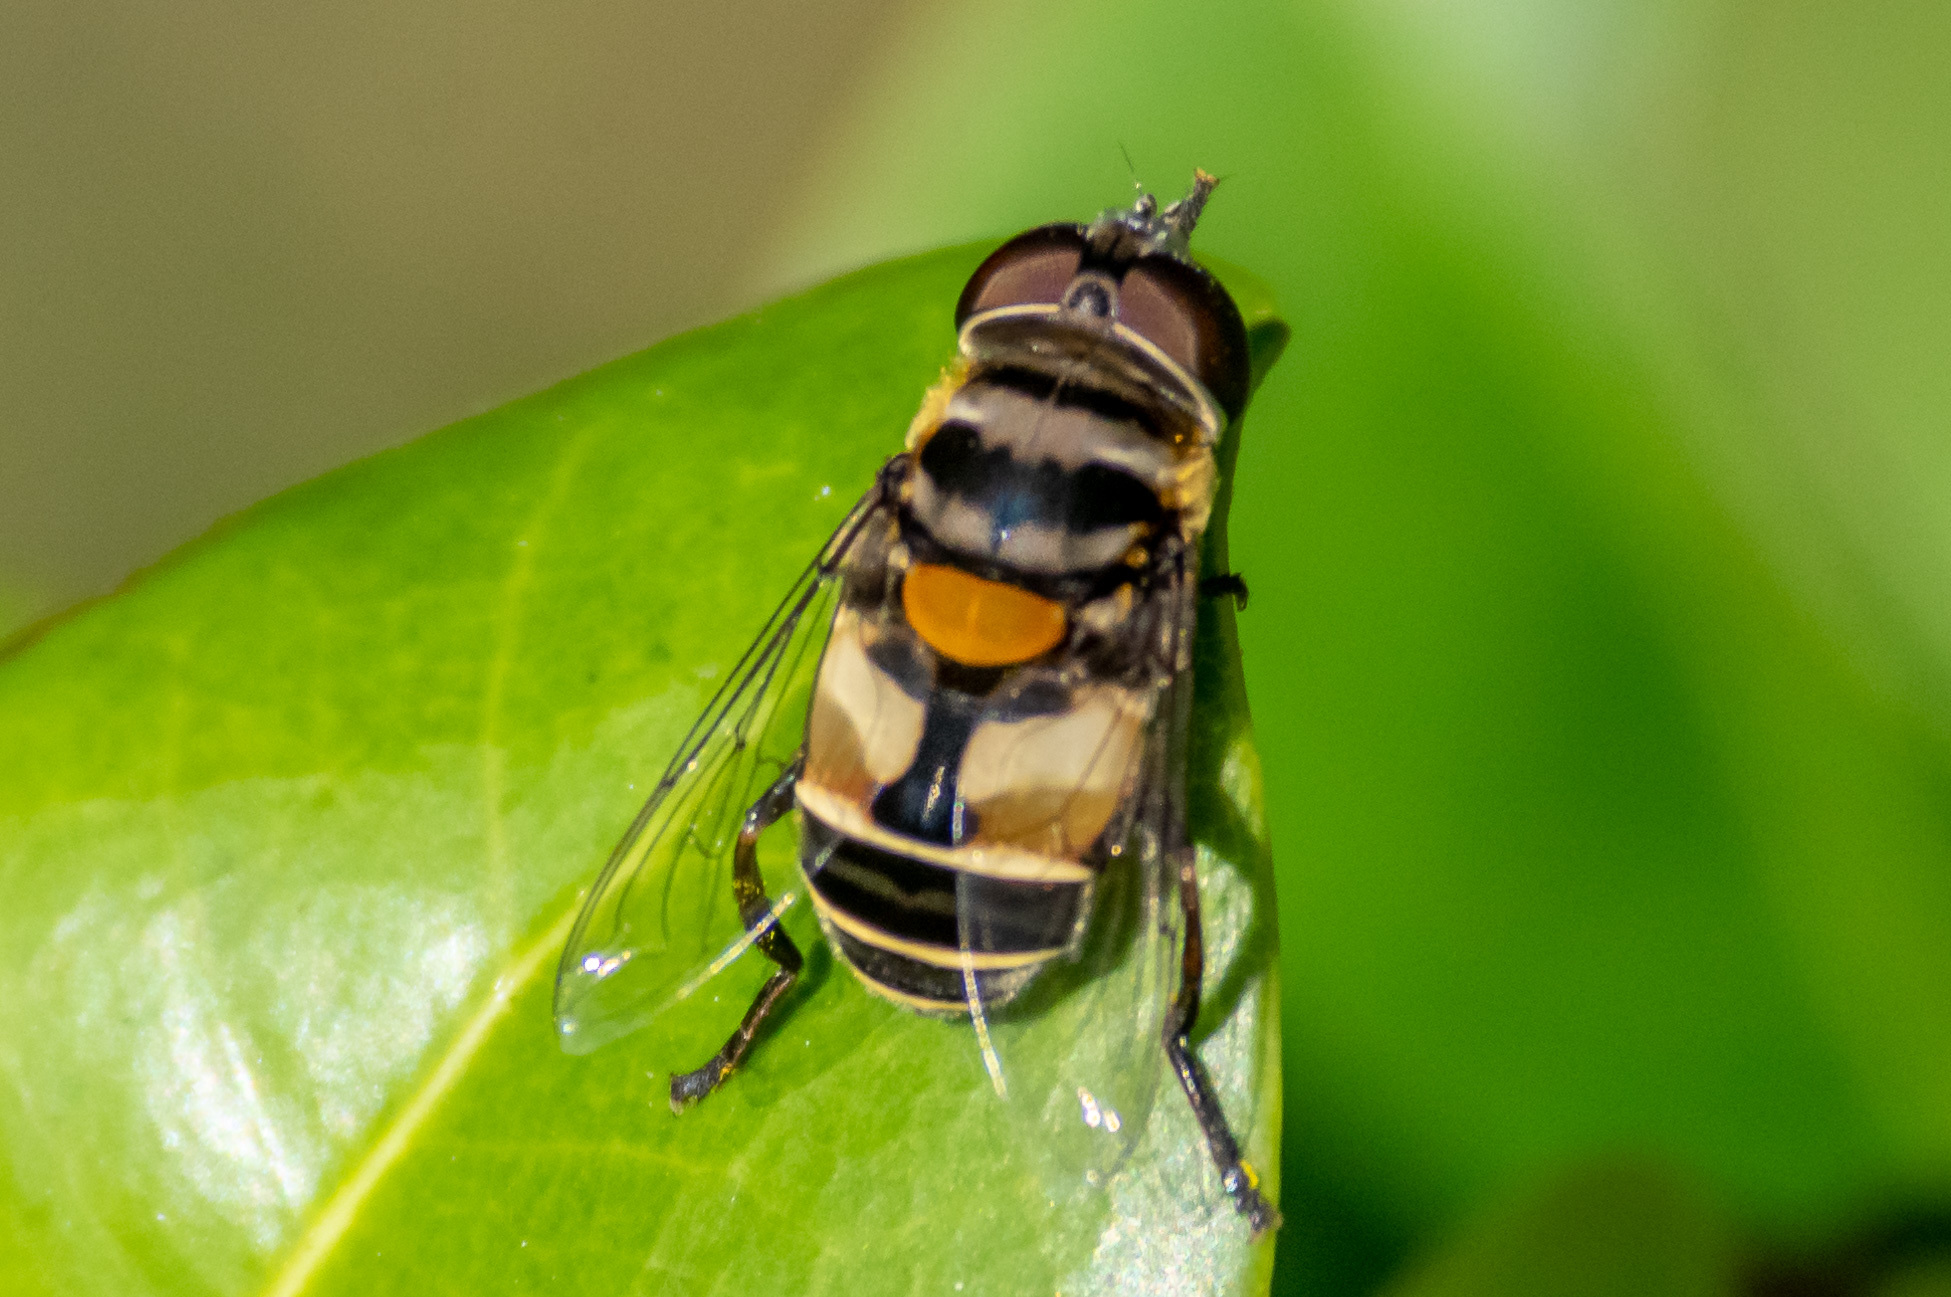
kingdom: Animalia
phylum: Arthropoda
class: Insecta
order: Diptera
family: Syrphidae
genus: Palpada
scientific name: Palpada albifrons
